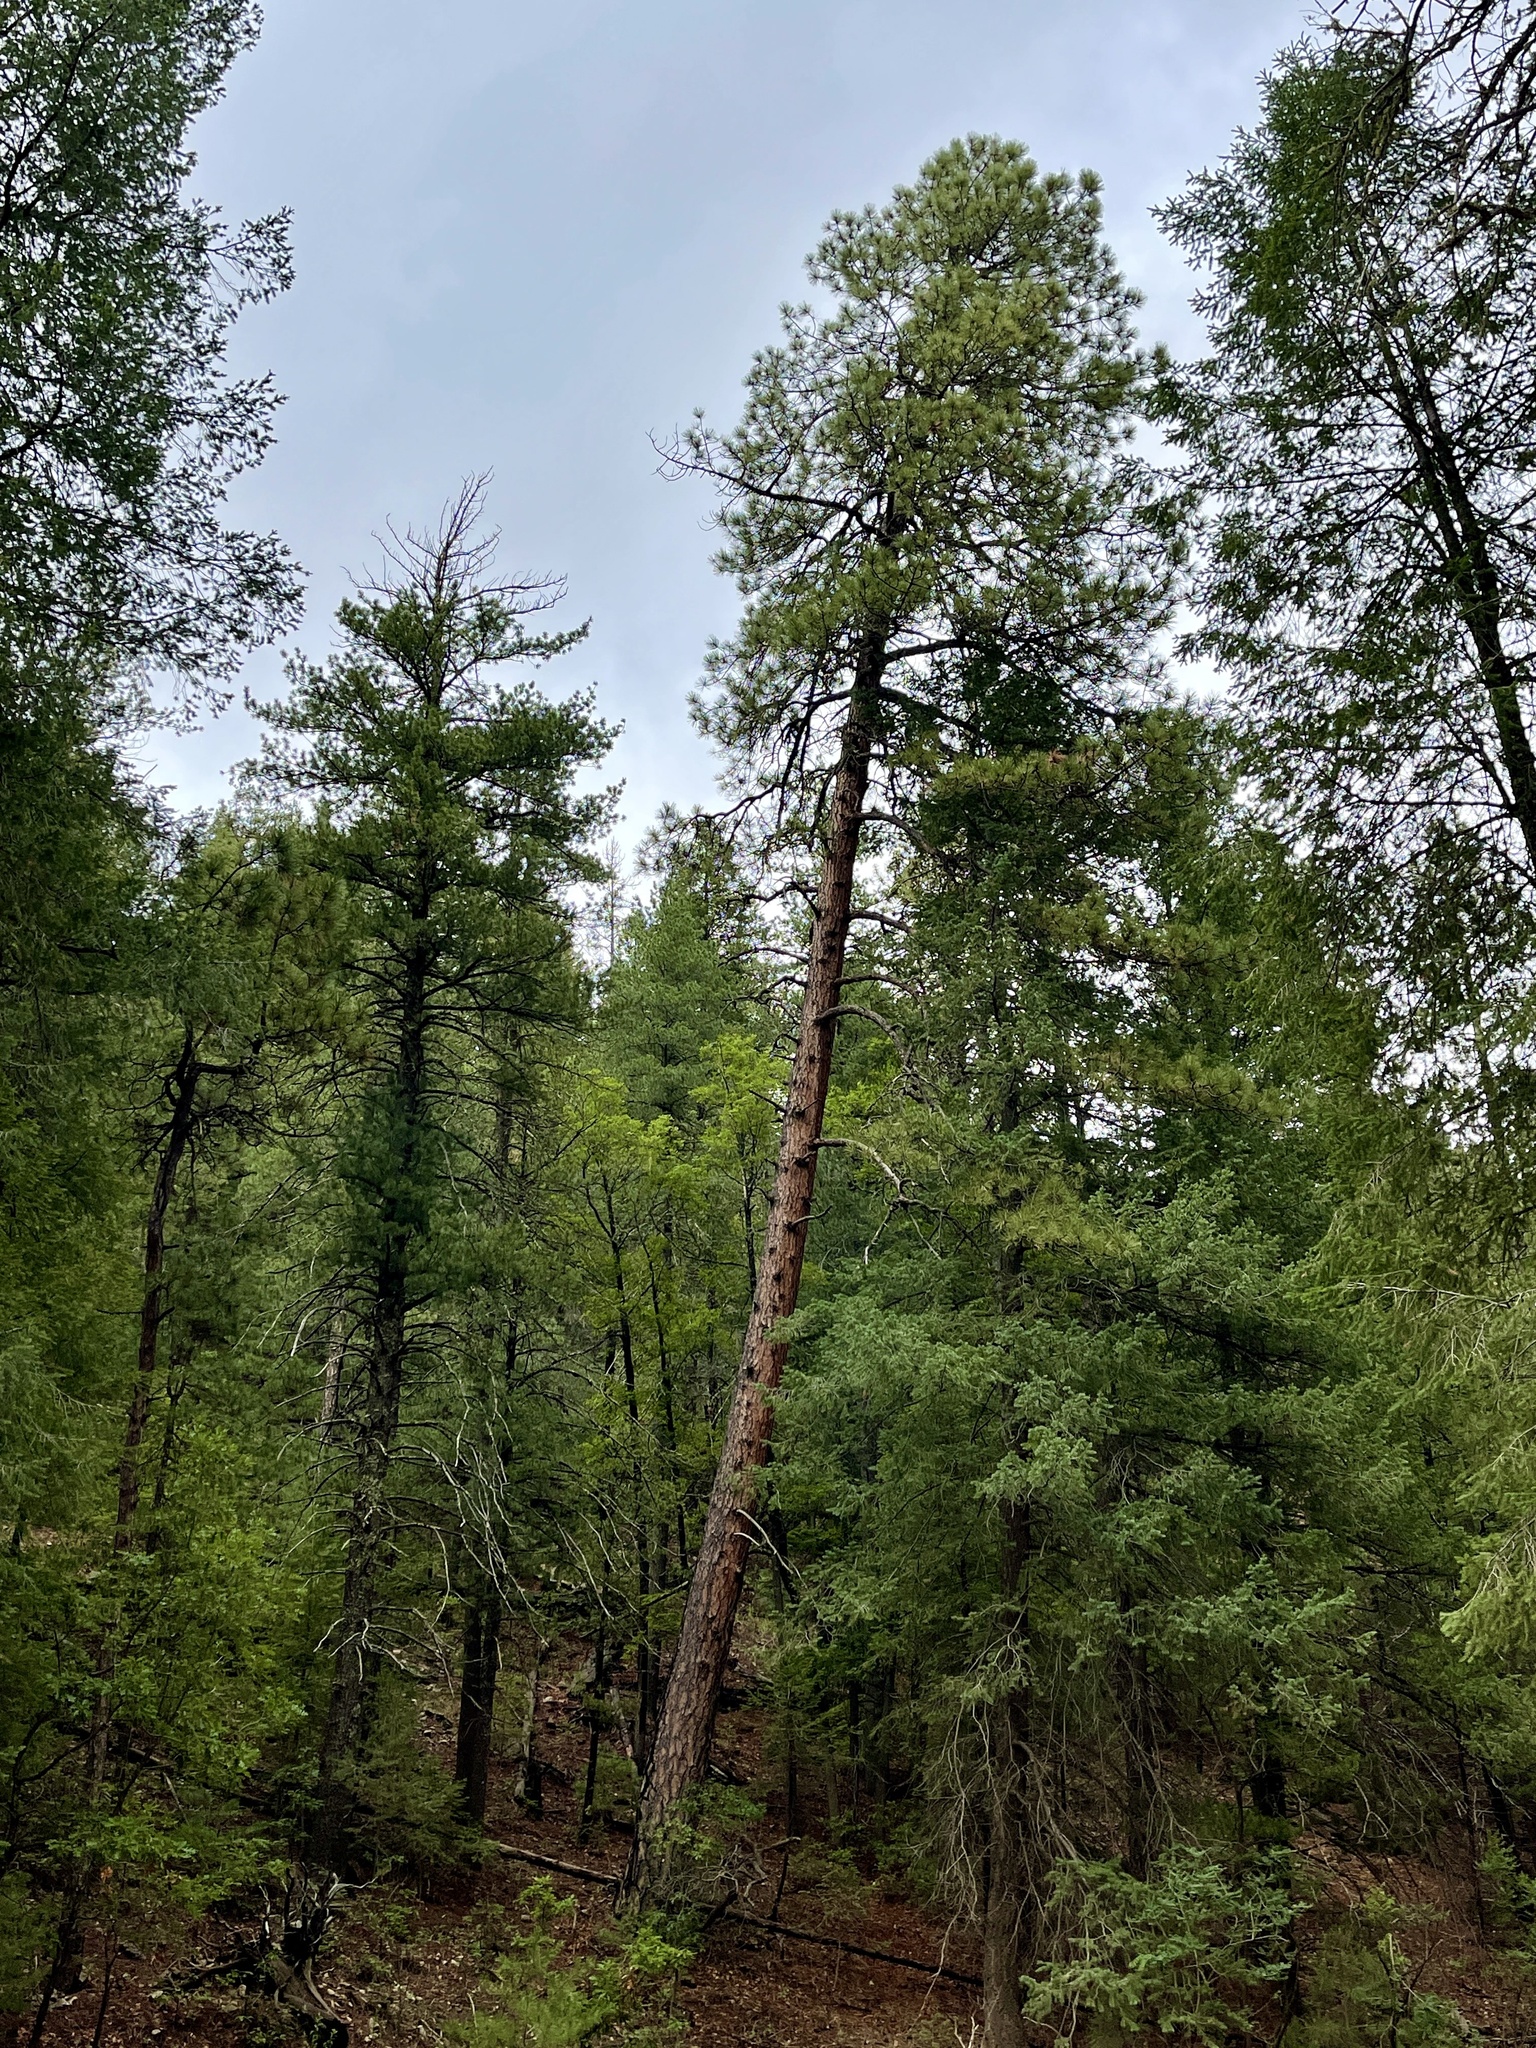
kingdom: Plantae
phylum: Tracheophyta
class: Pinopsida
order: Pinales
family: Pinaceae
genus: Pinus
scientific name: Pinus ponderosa
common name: Western yellow-pine
